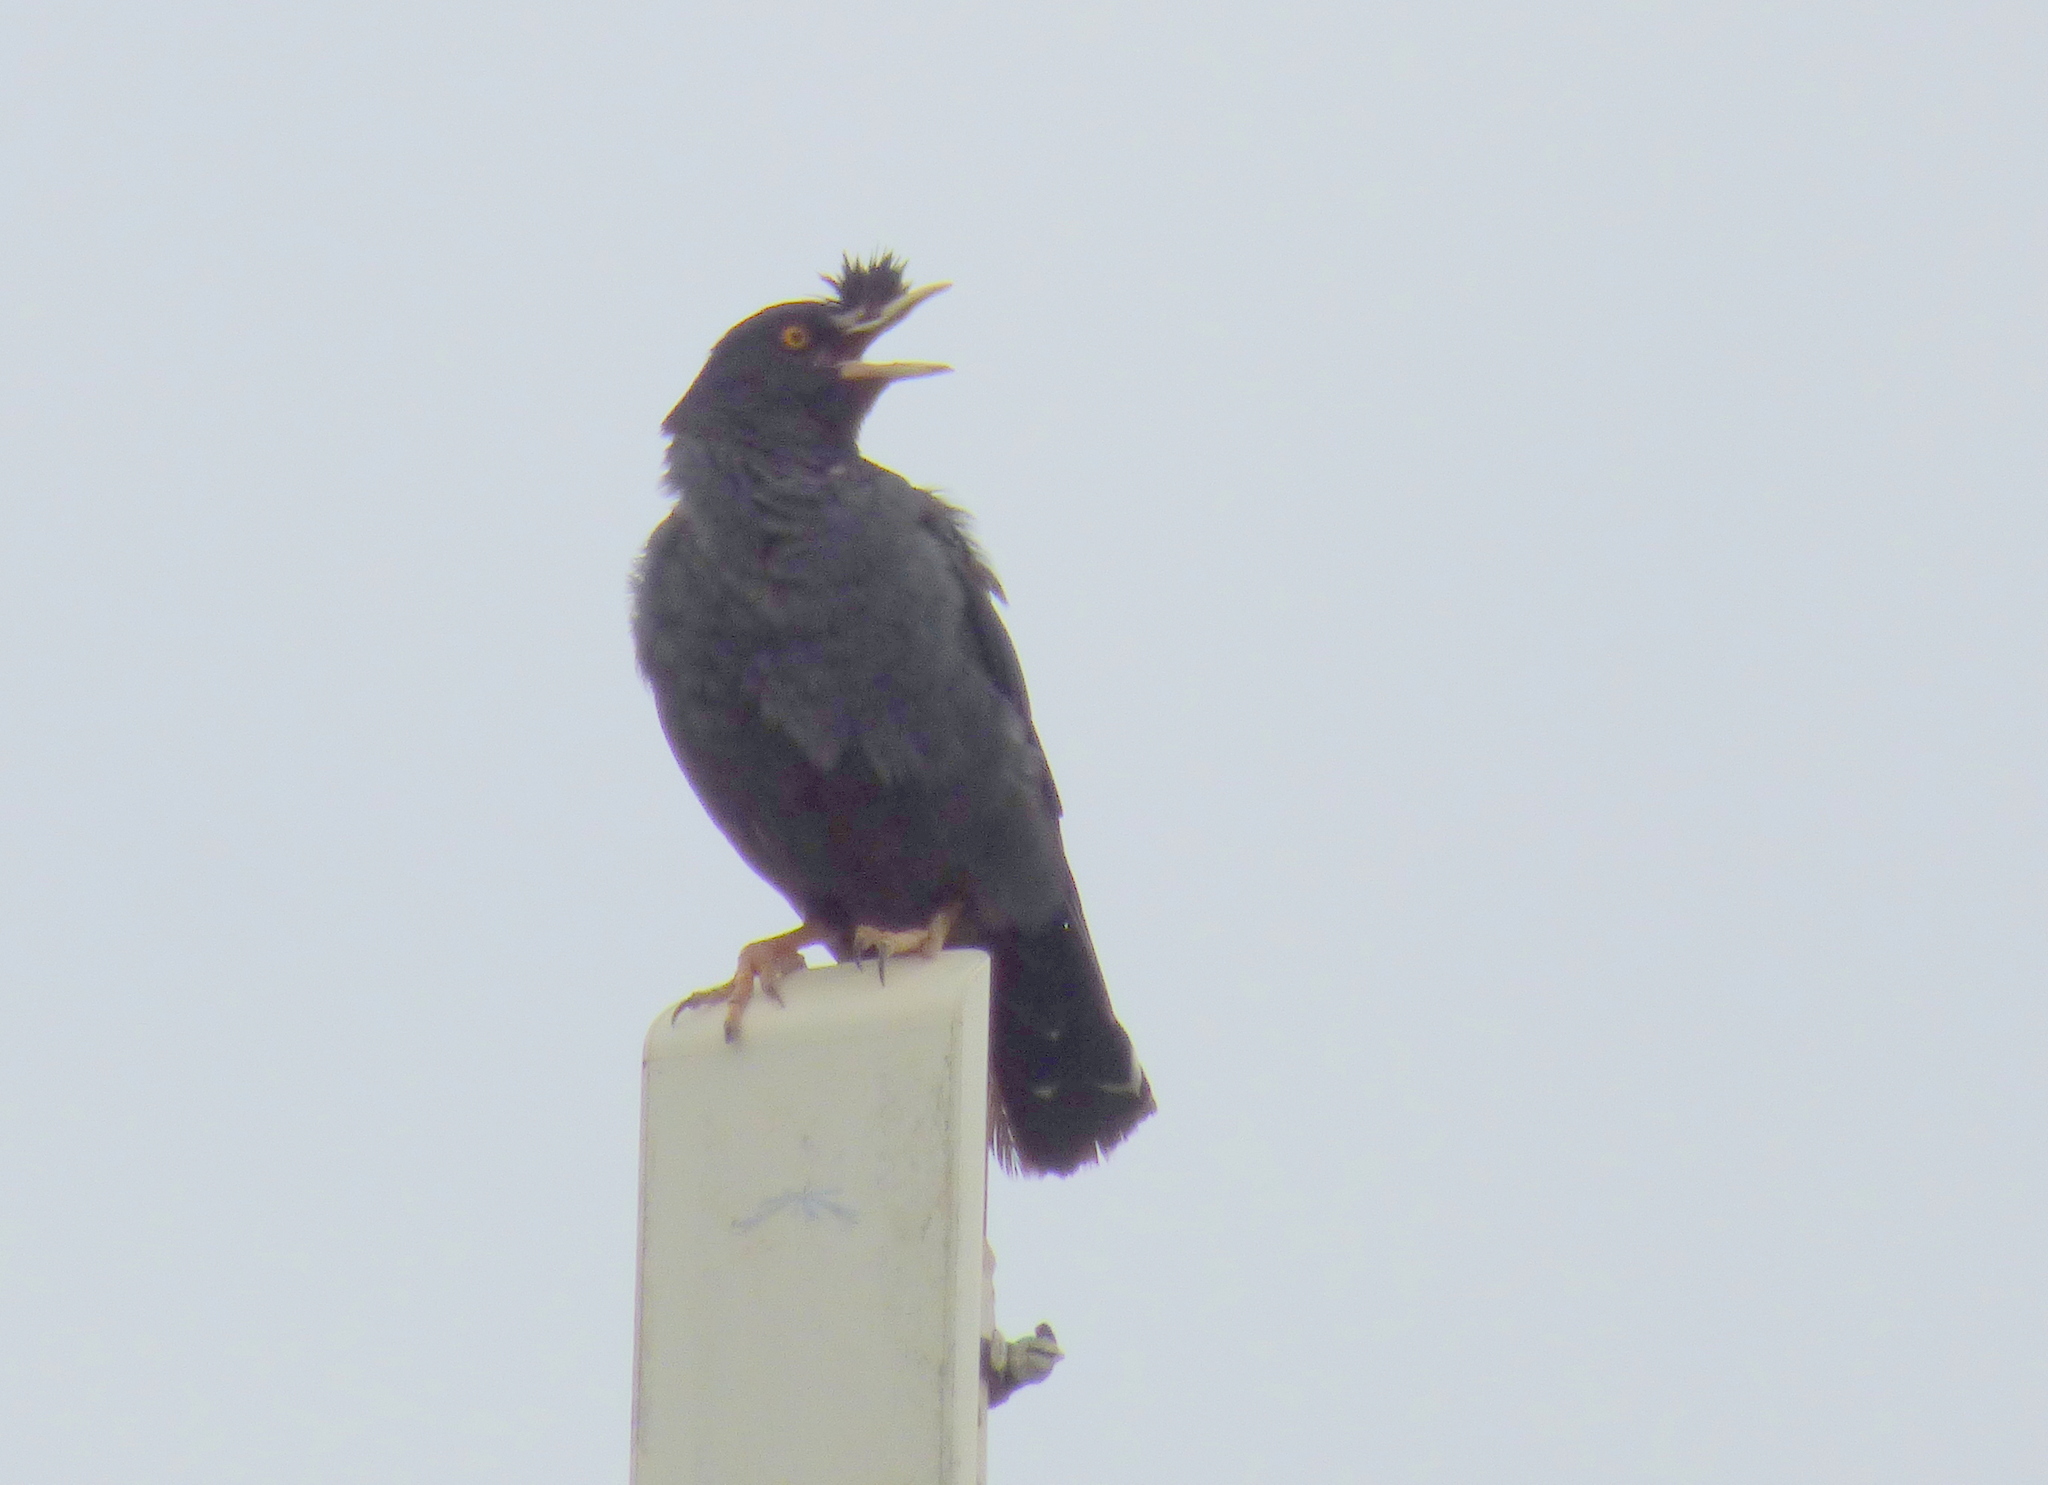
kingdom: Animalia
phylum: Chordata
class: Aves
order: Passeriformes
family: Sturnidae
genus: Acridotheres
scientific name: Acridotheres cristatellus
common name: Crested myna
